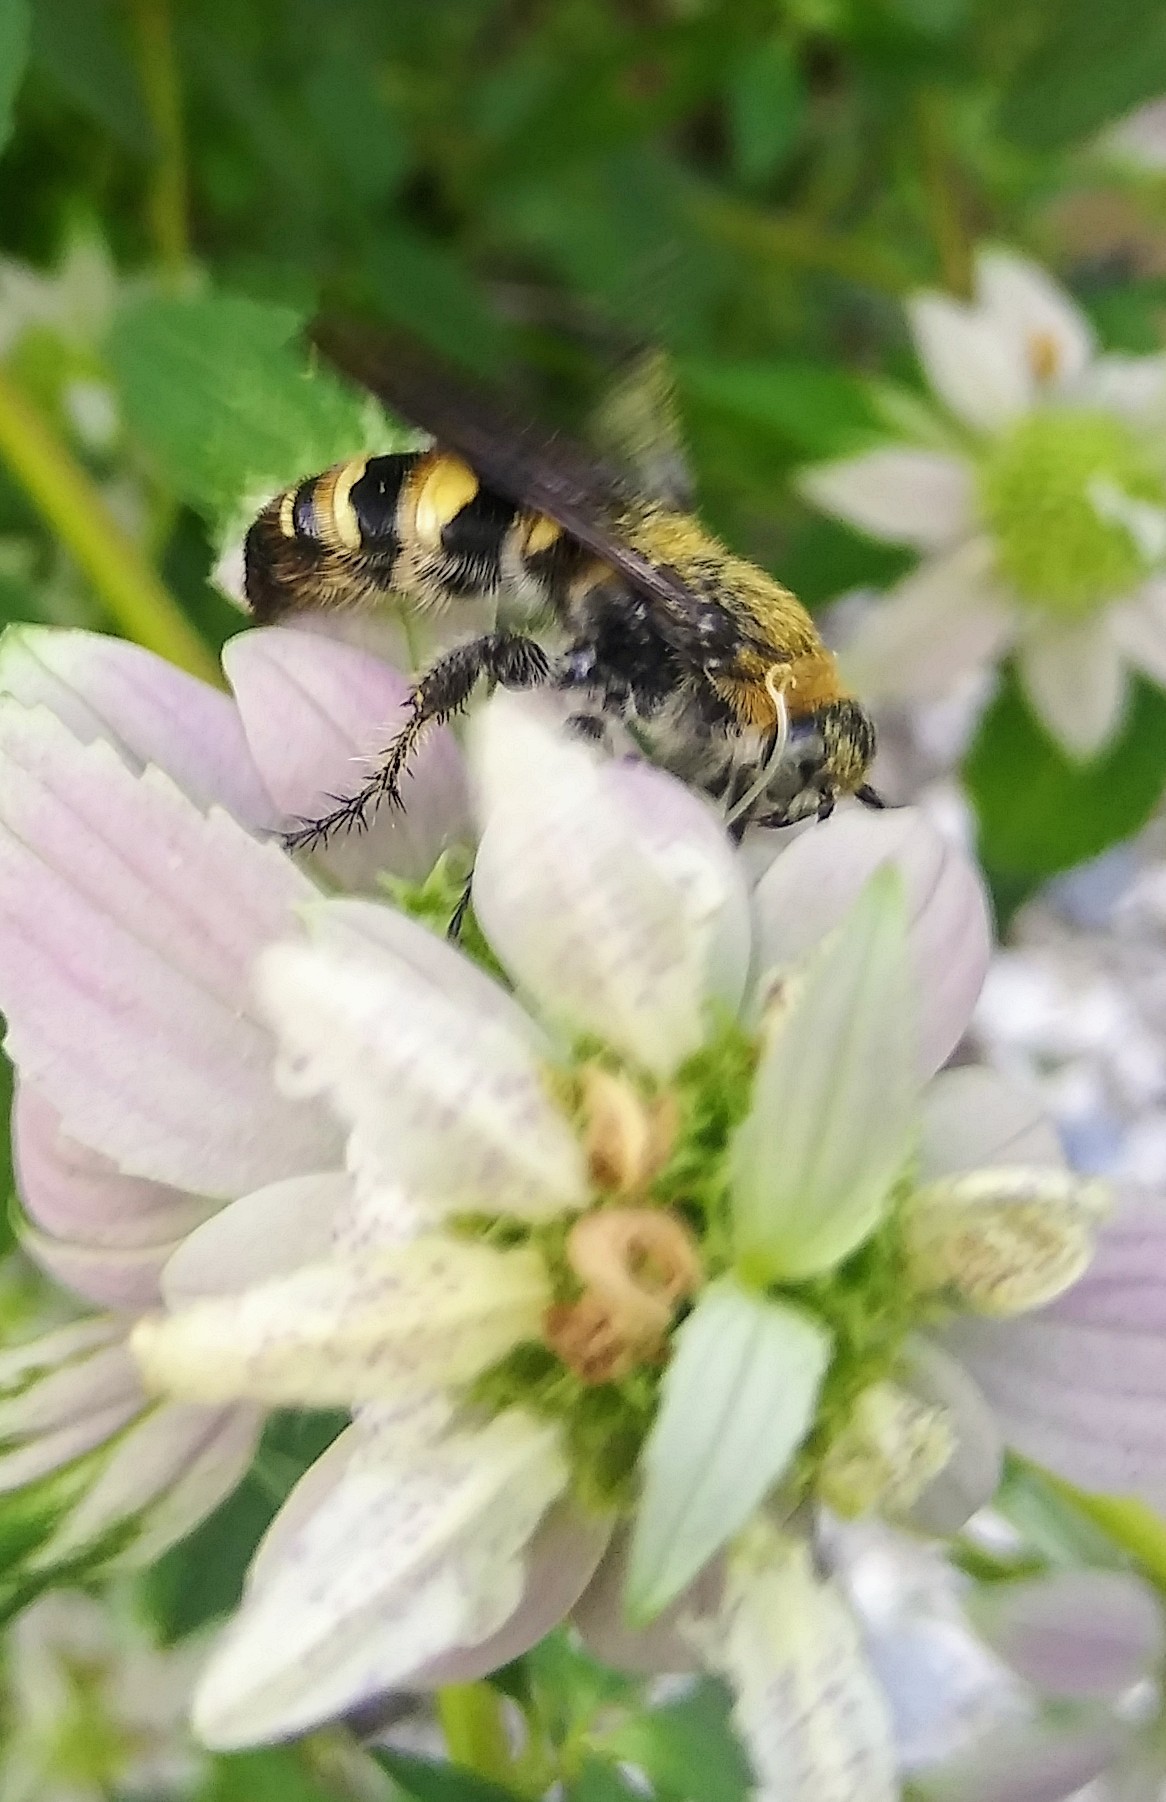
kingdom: Animalia
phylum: Arthropoda
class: Insecta
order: Hymenoptera
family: Scoliidae
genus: Dielis
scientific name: Dielis
